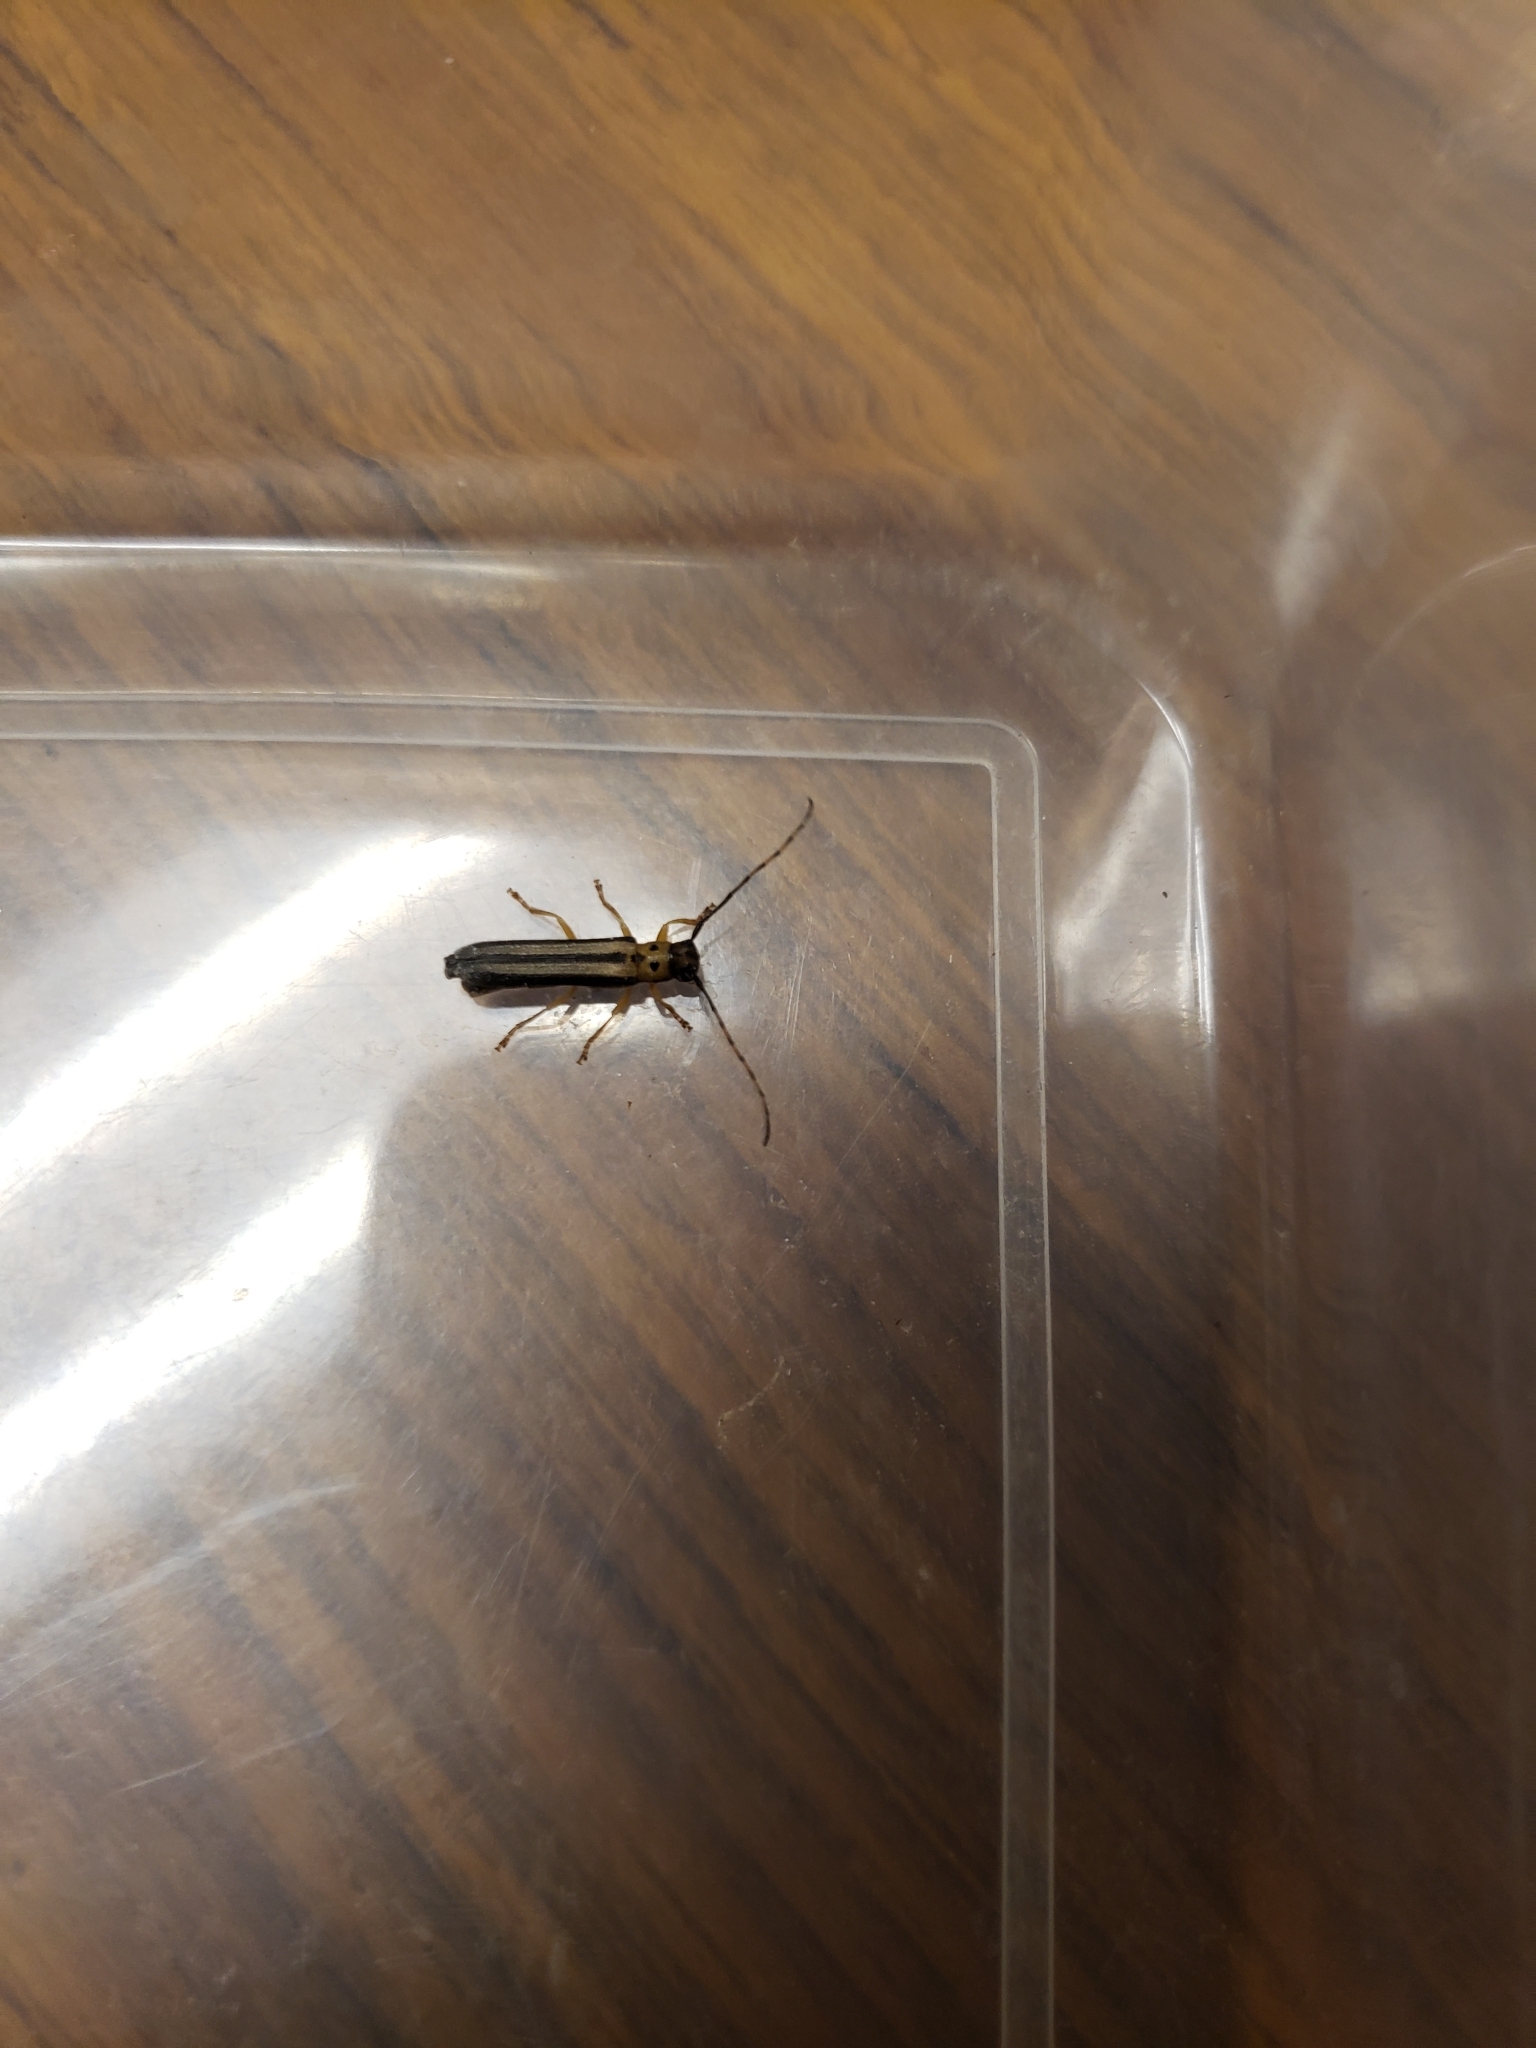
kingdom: Animalia
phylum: Arthropoda
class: Insecta
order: Coleoptera
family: Cerambycidae
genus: Oberea
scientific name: Oberea tripunctata
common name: Dogwood twig borer
